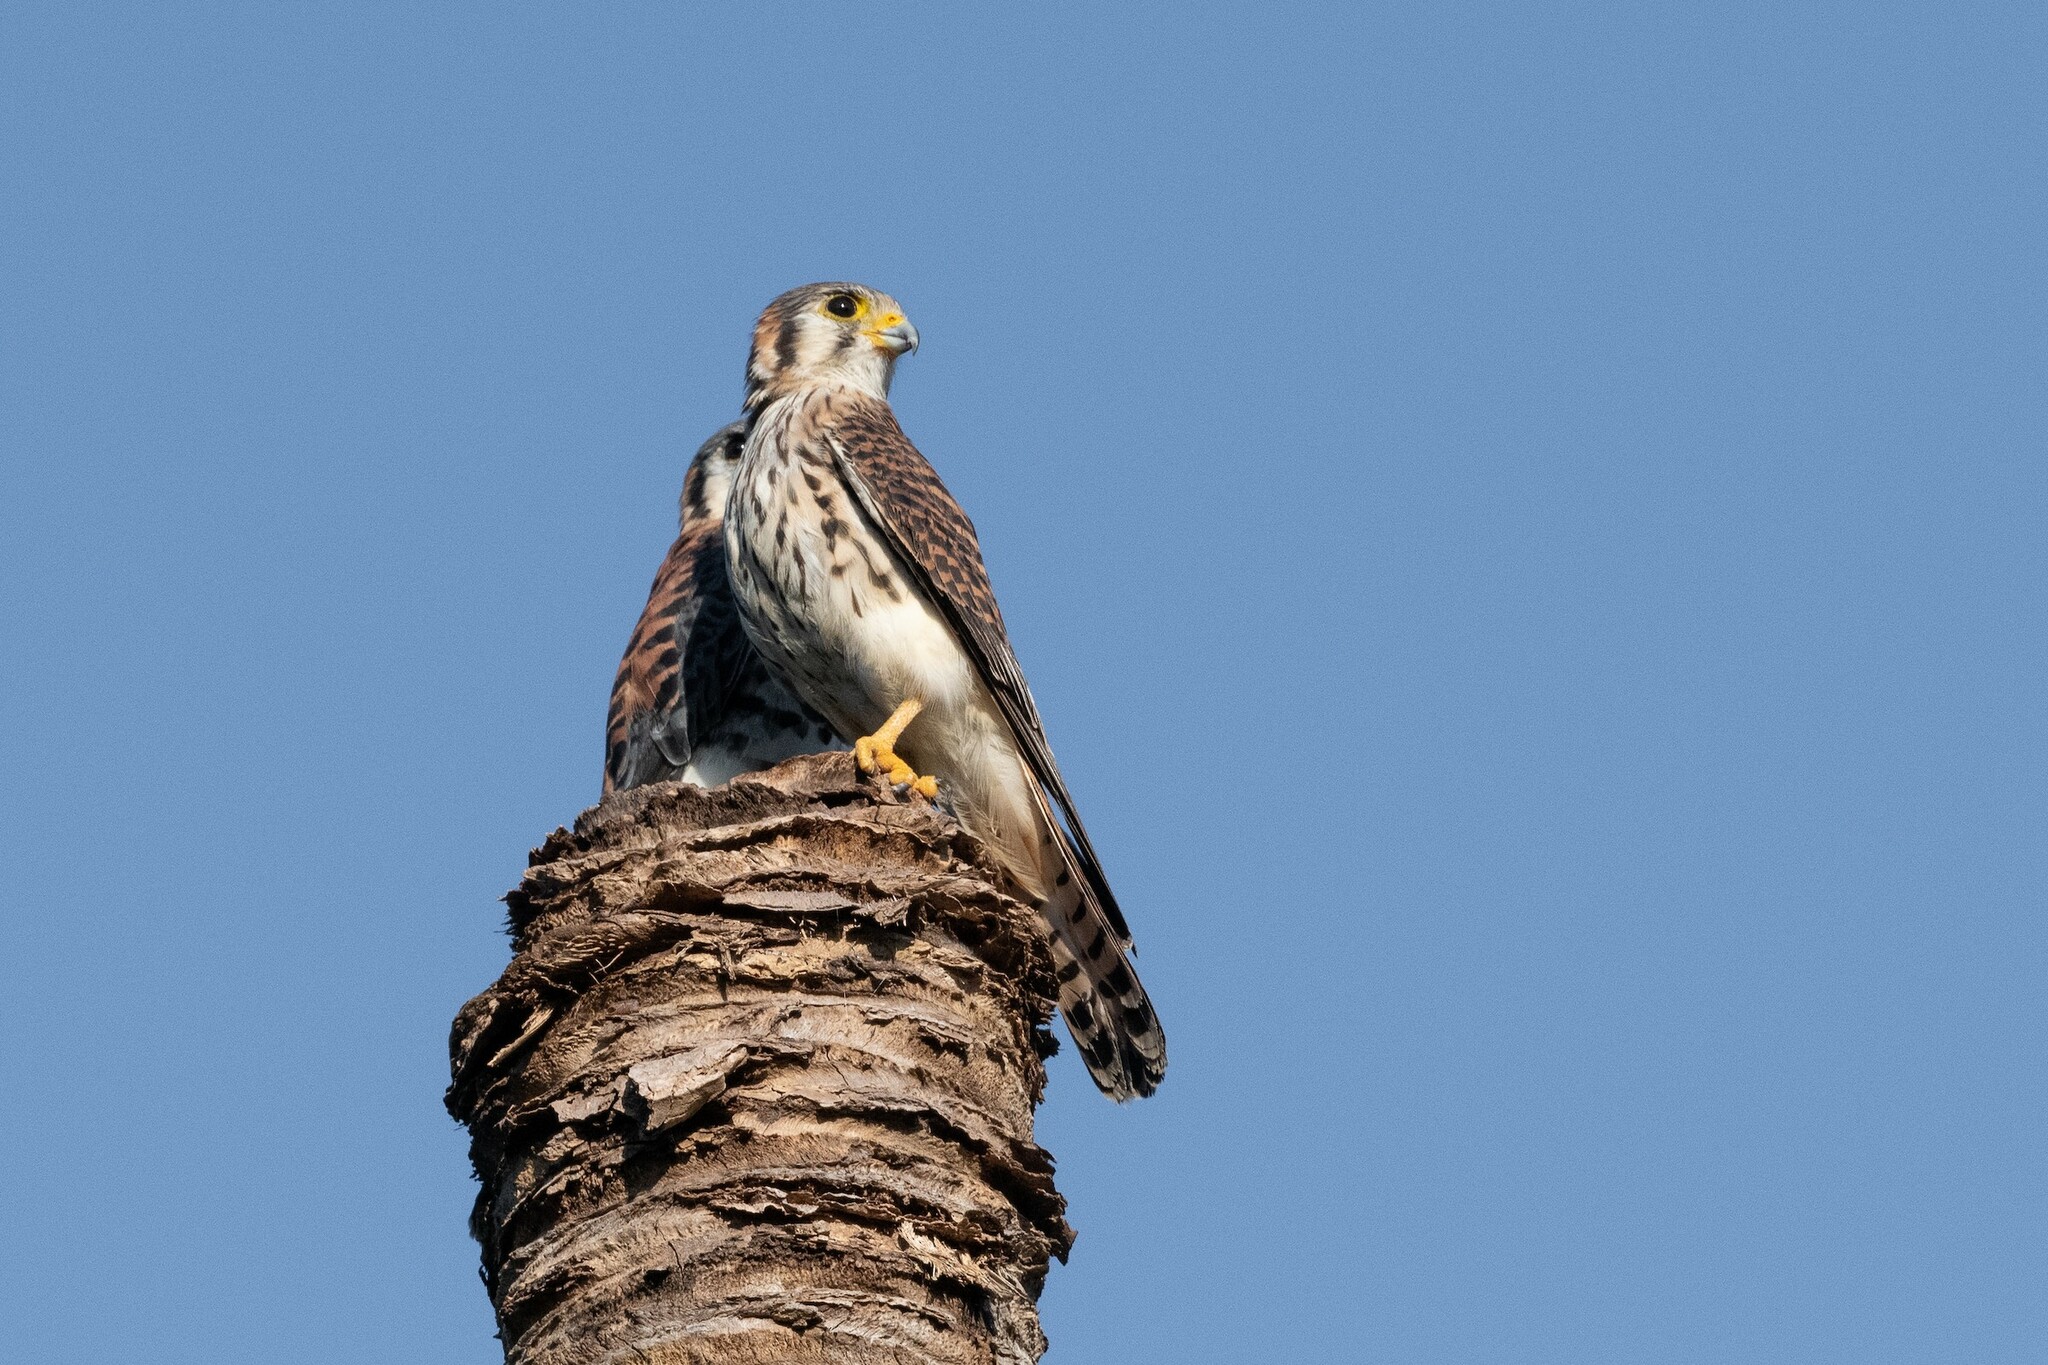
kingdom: Animalia
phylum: Chordata
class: Aves
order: Falconiformes
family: Falconidae
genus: Falco
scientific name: Falco sparverius
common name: American kestrel
